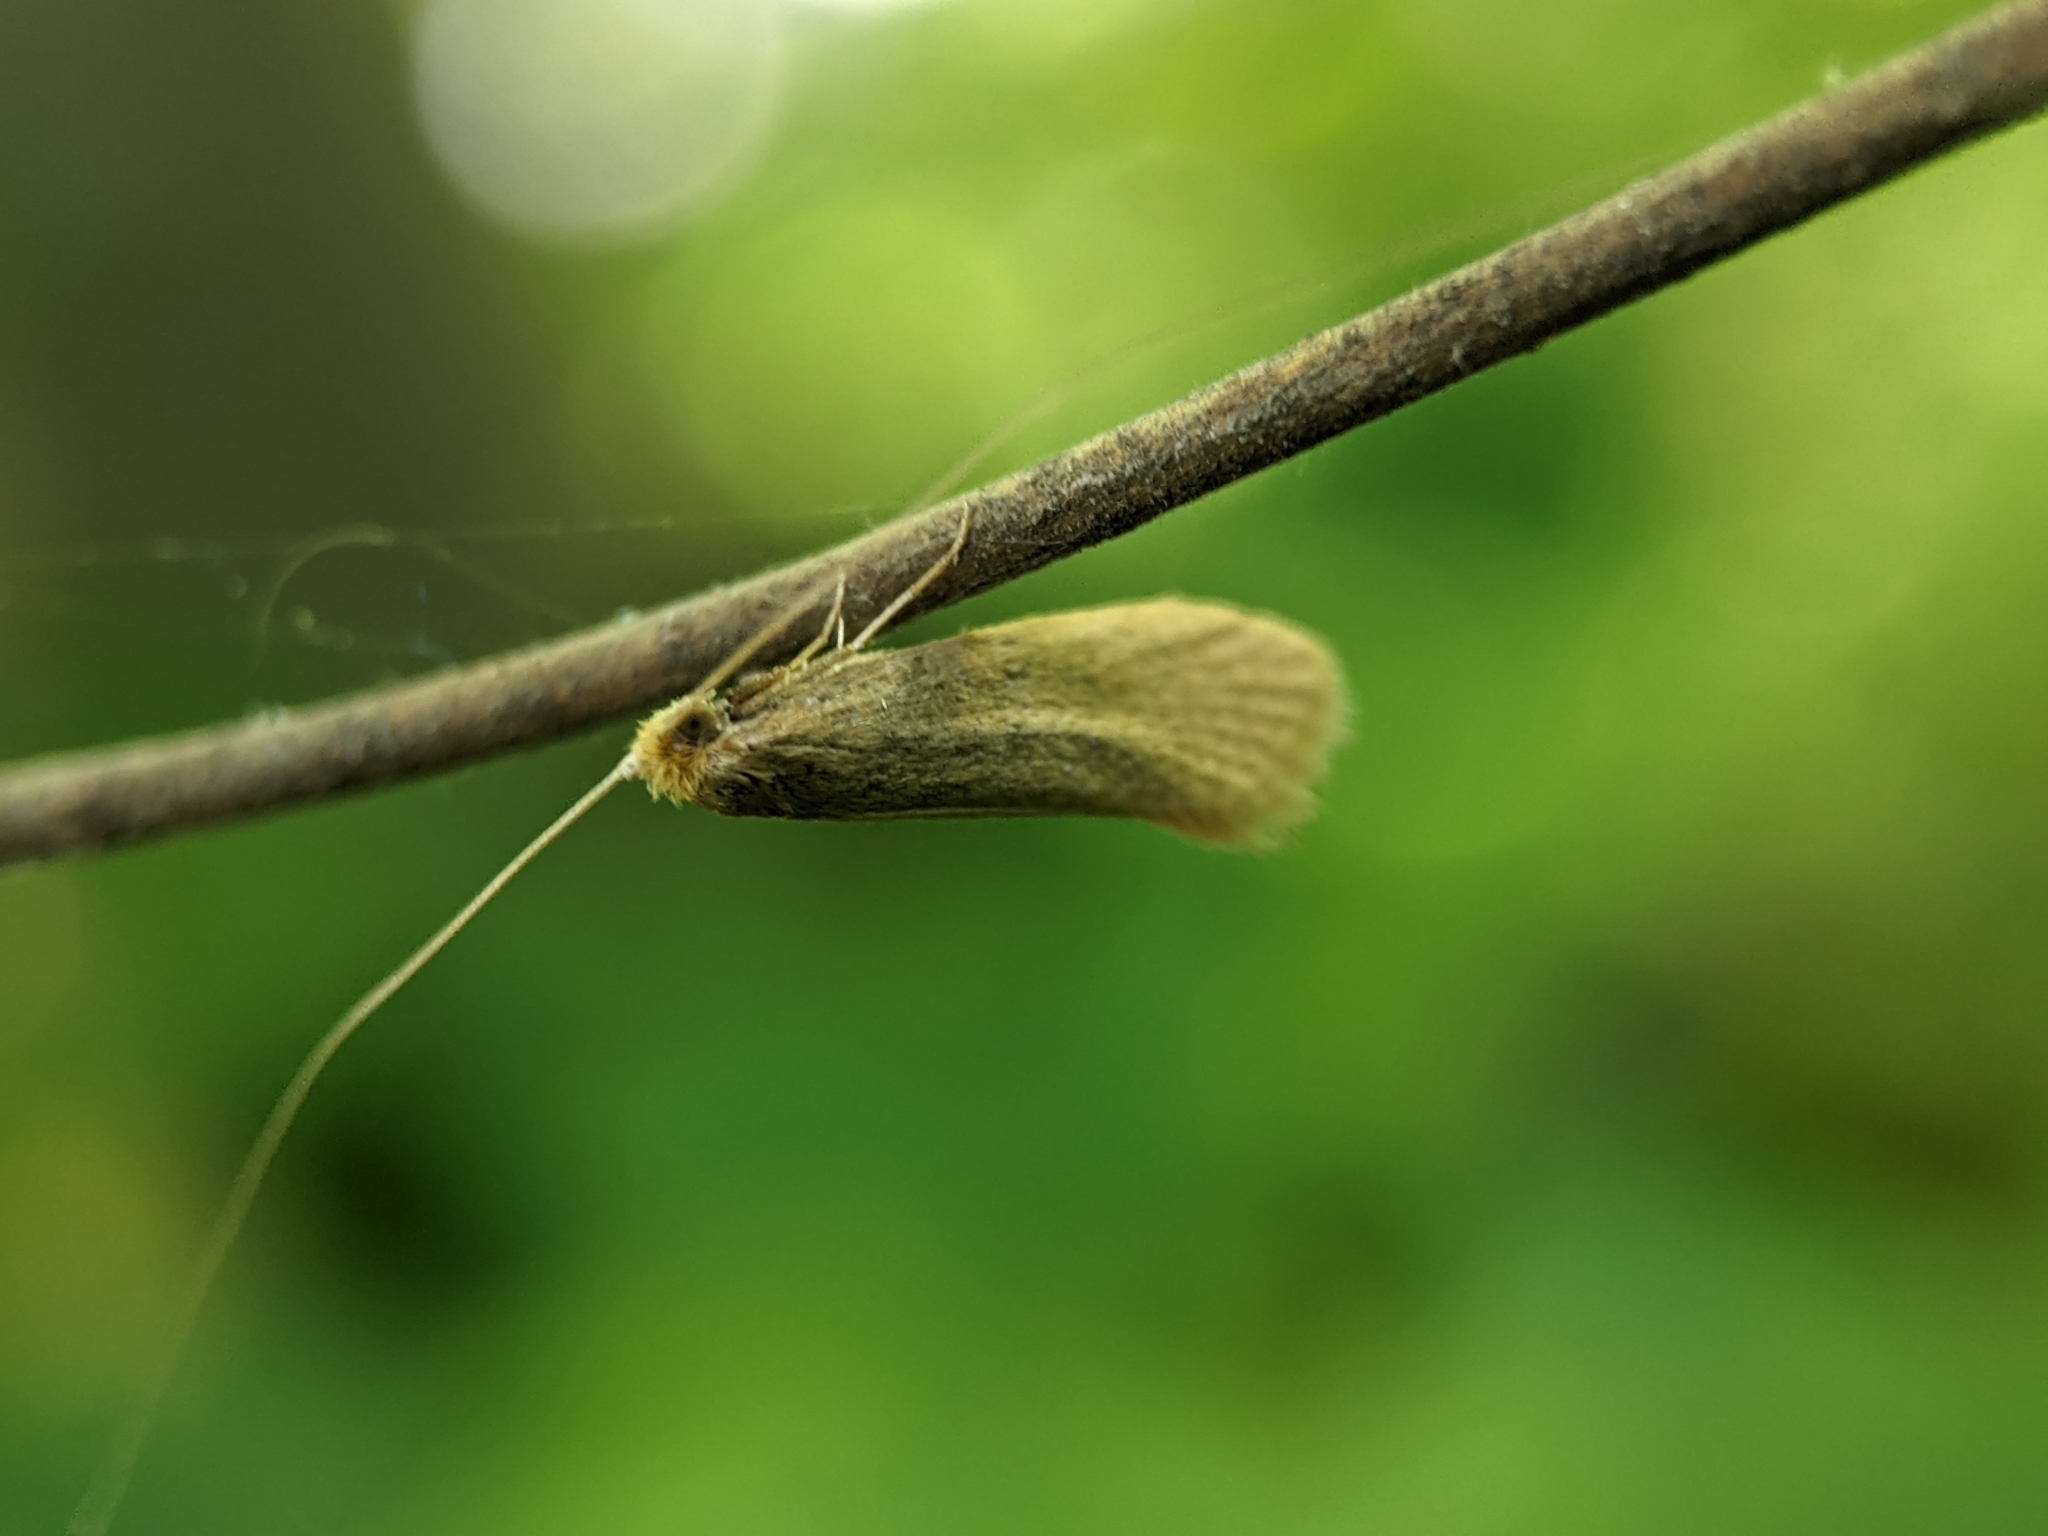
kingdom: Animalia
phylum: Arthropoda
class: Insecta
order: Lepidoptera
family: Adelidae
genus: Nematopogon
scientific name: Nematopogon swammerdamella
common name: Large long-horn
